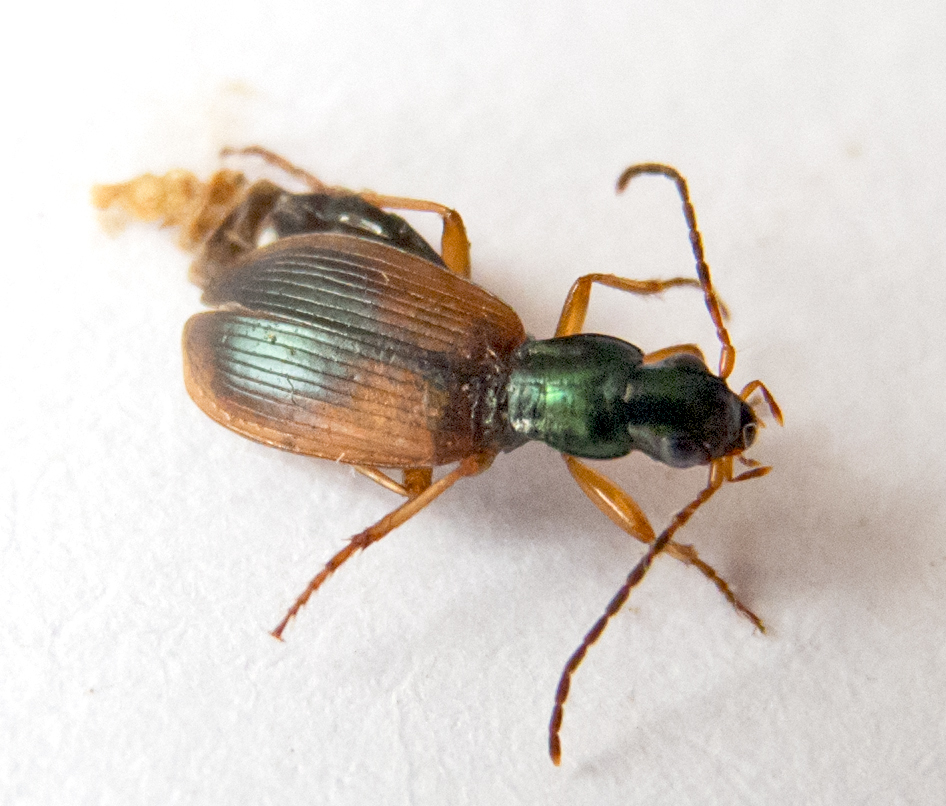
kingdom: Animalia
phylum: Arthropoda
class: Insecta
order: Coleoptera
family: Carabidae
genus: Anchomenus
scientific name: Anchomenus dorsalis
